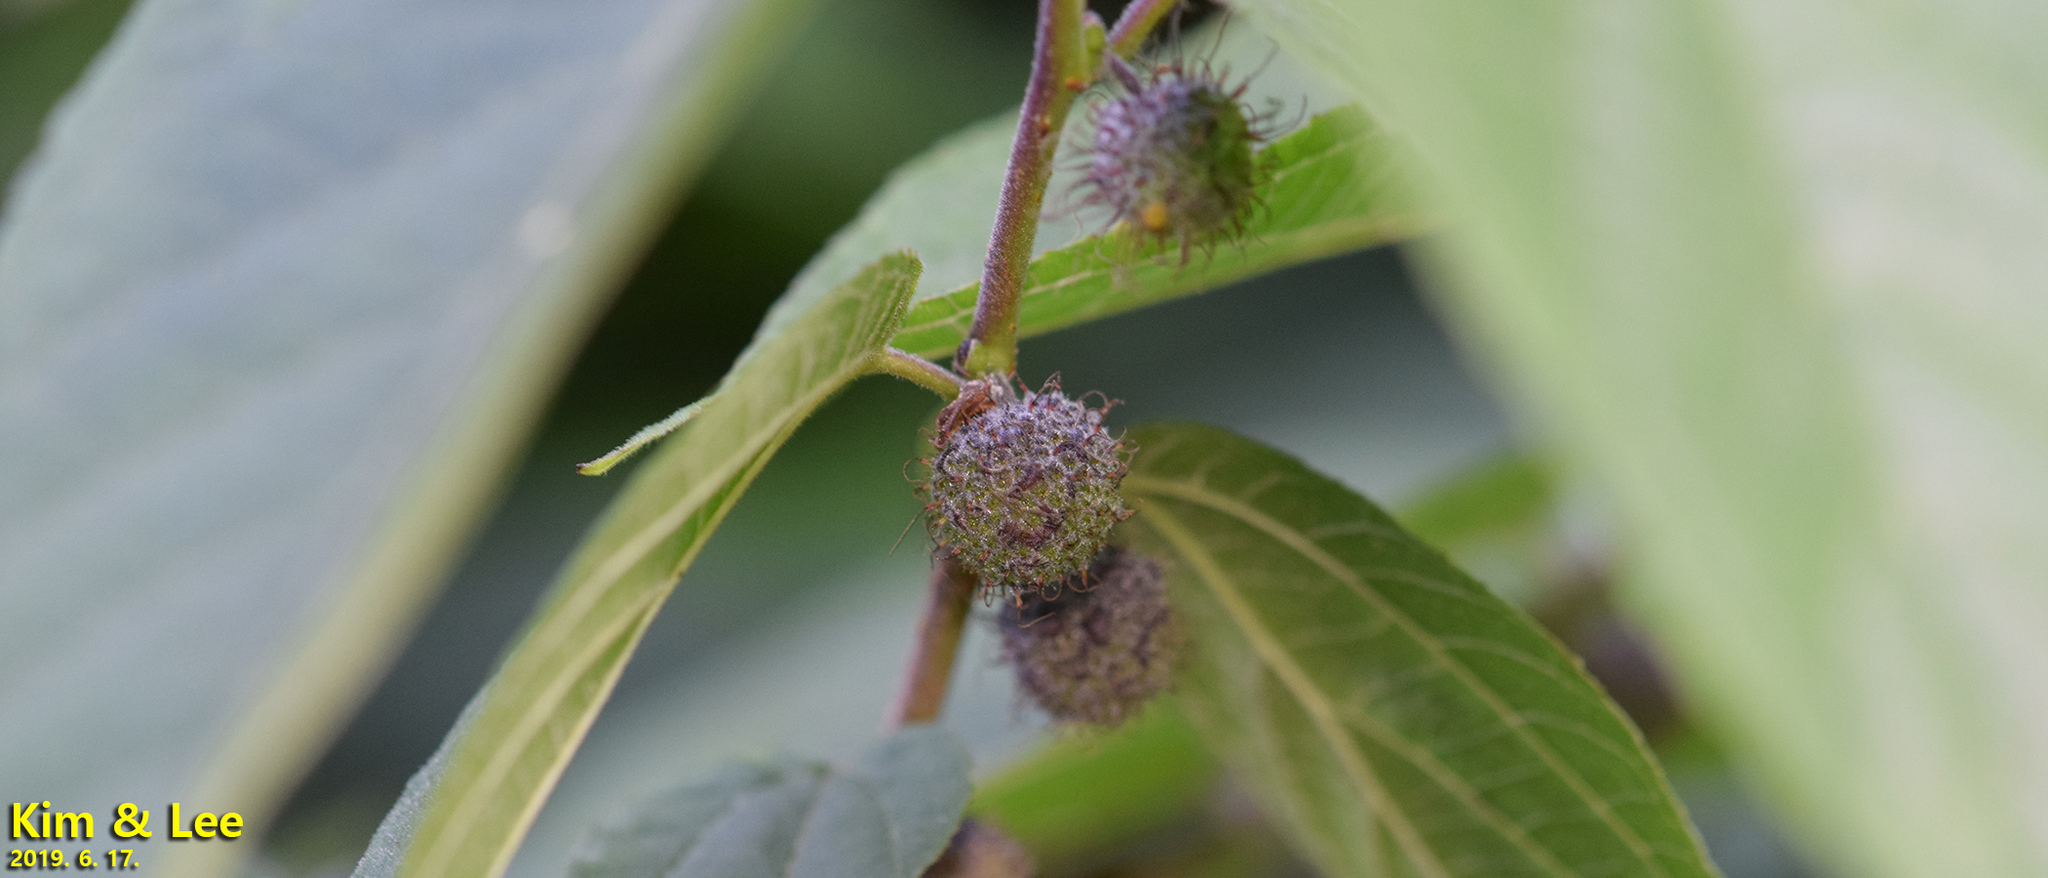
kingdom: Plantae
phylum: Tracheophyta
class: Magnoliopsida
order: Rosales
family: Moraceae
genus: Broussonetia
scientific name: Broussonetia papyrifera
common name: Paper mulberry
